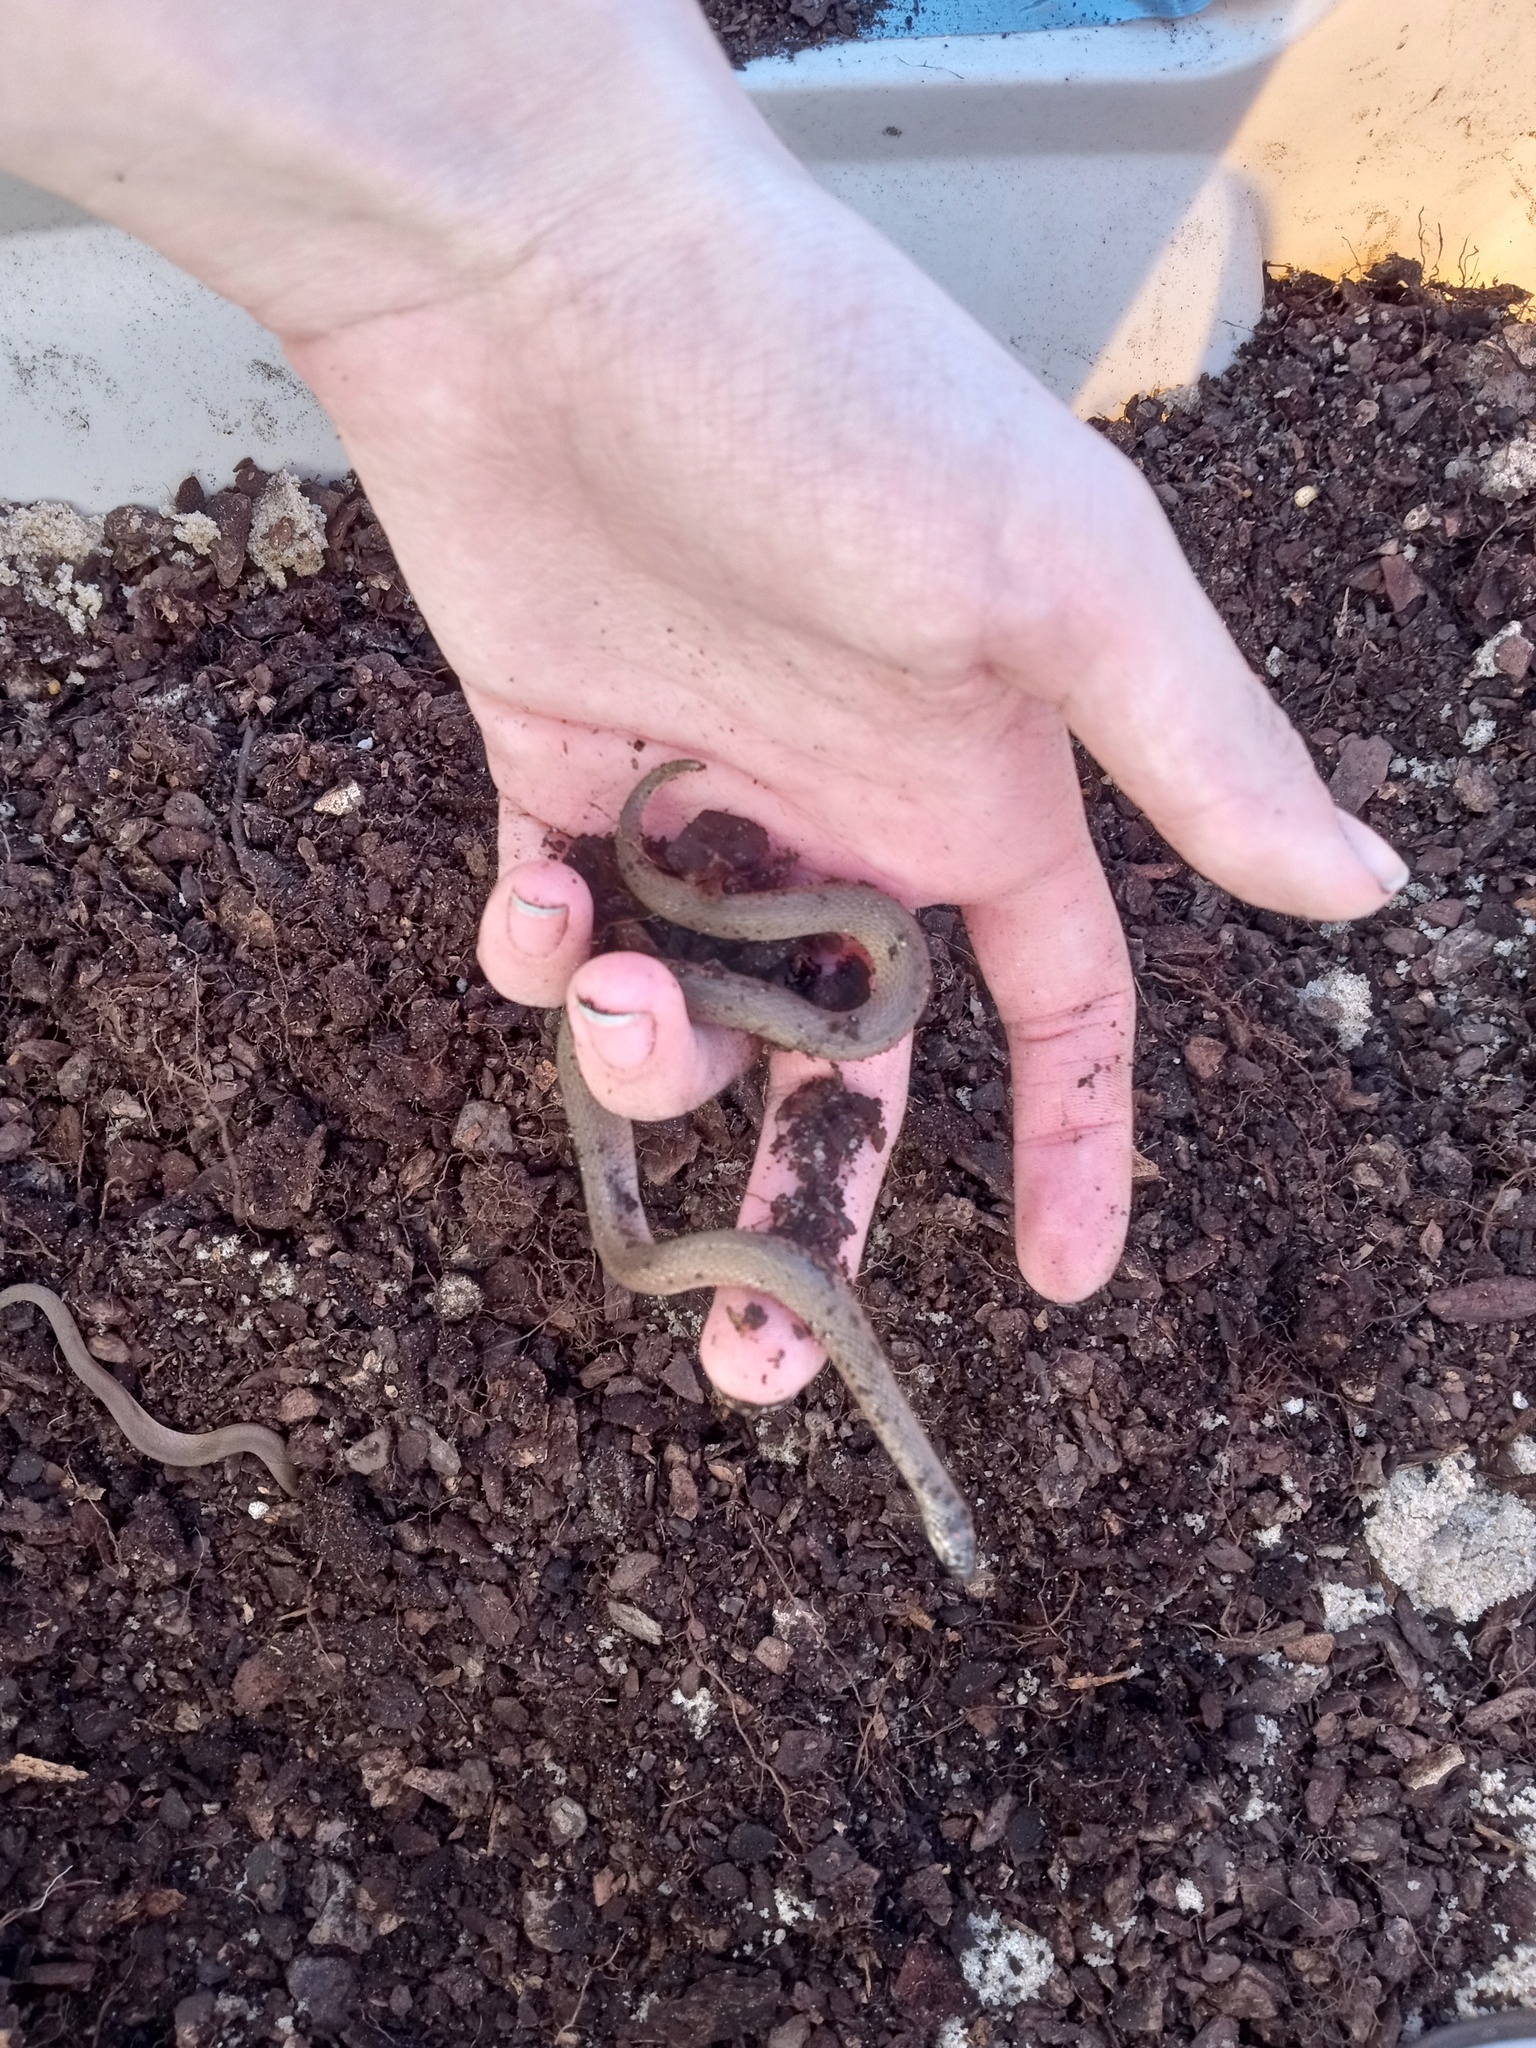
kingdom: Animalia
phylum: Chordata
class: Squamata
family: Colubridae
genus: Haldea
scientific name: Haldea striatula
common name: Rough earth snake
